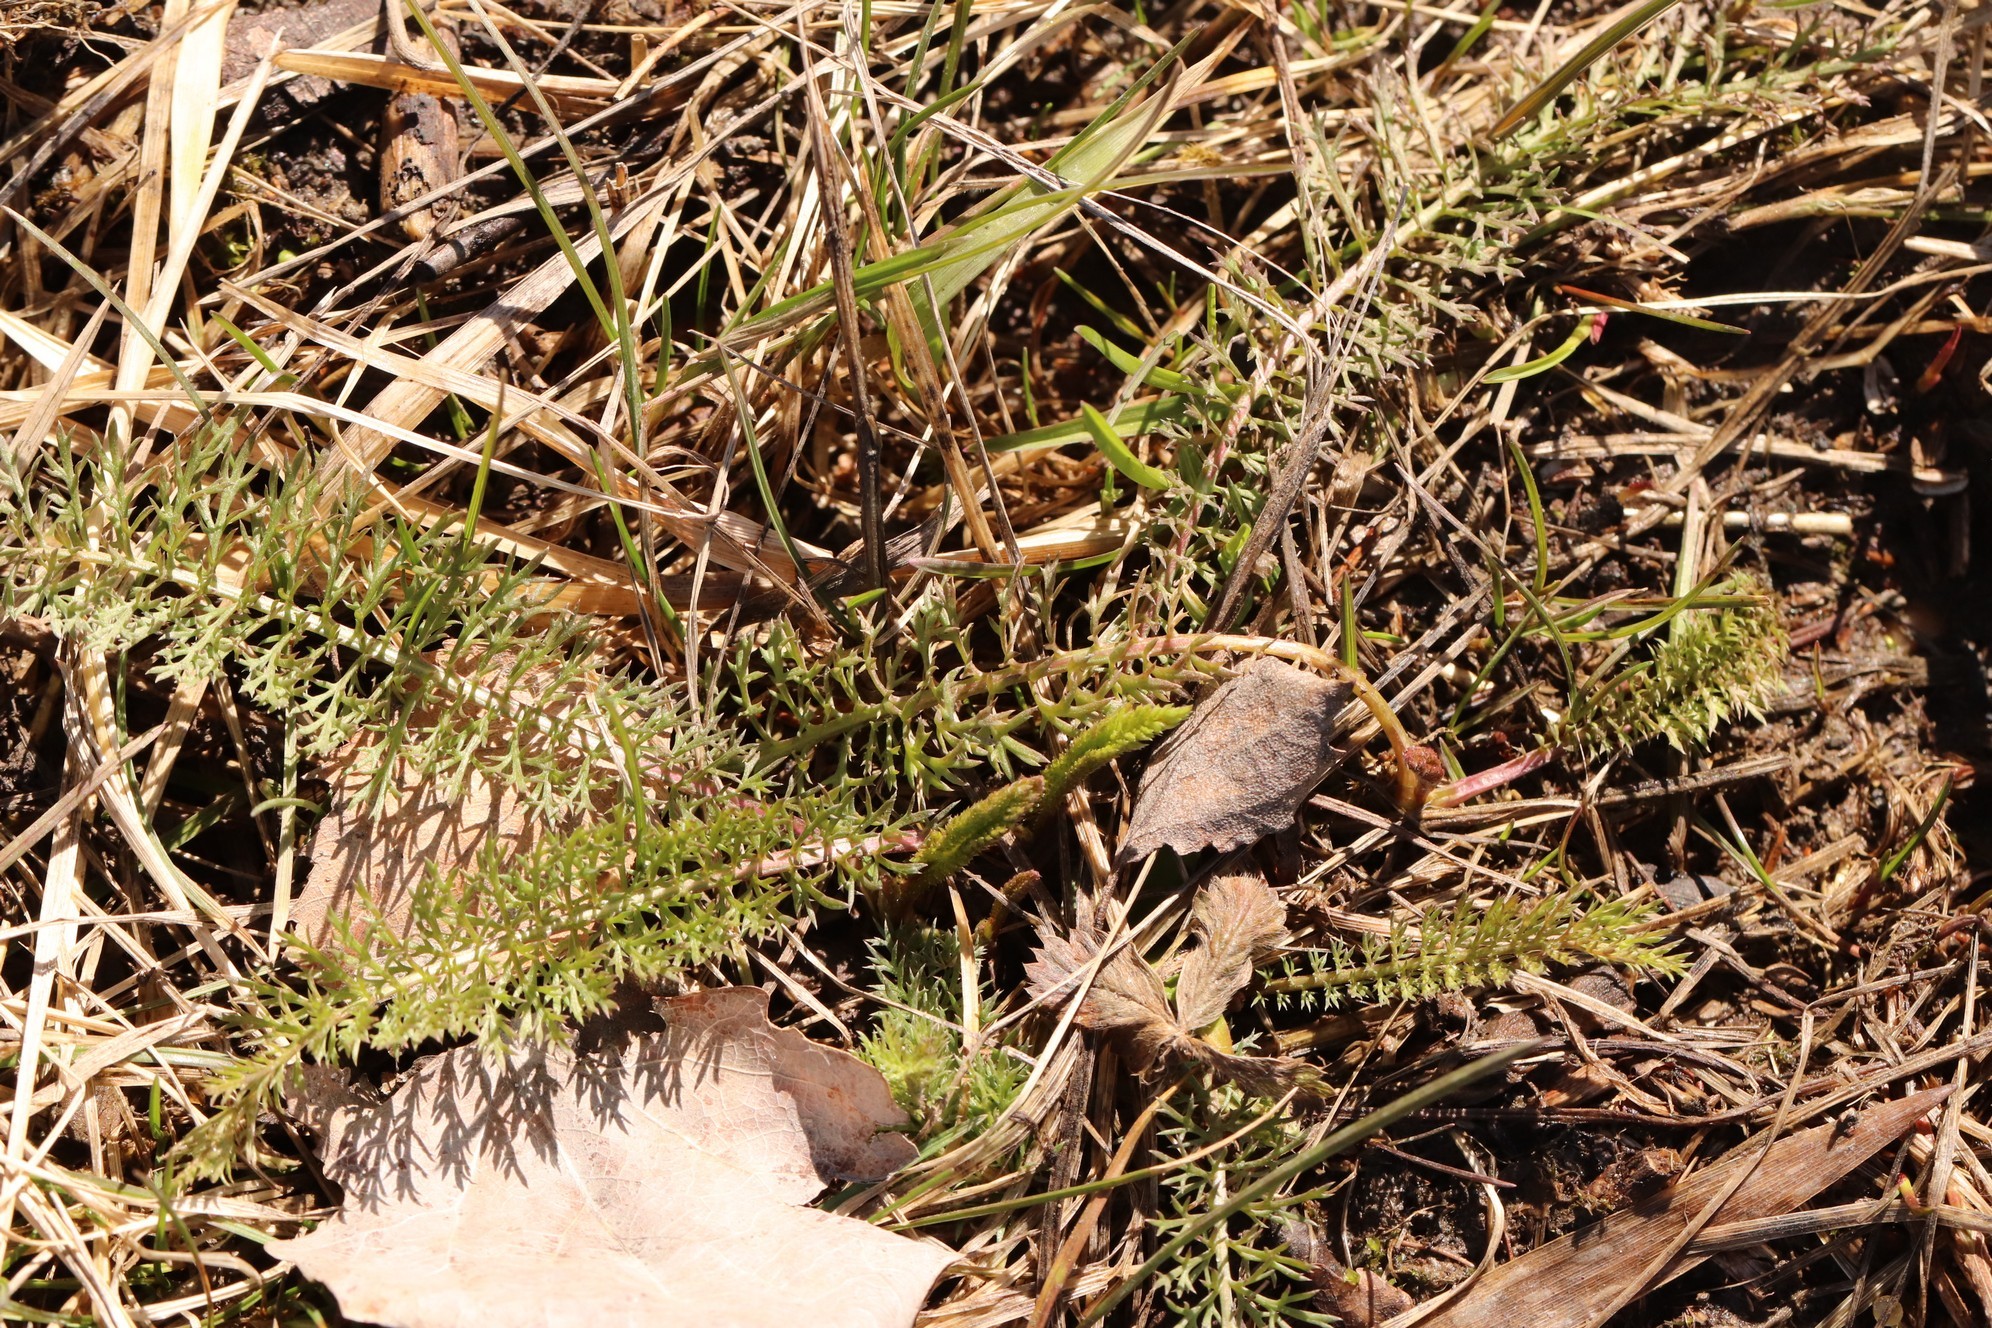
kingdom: Plantae
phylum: Tracheophyta
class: Magnoliopsida
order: Asterales
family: Asteraceae
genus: Achillea
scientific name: Achillea asiatica
